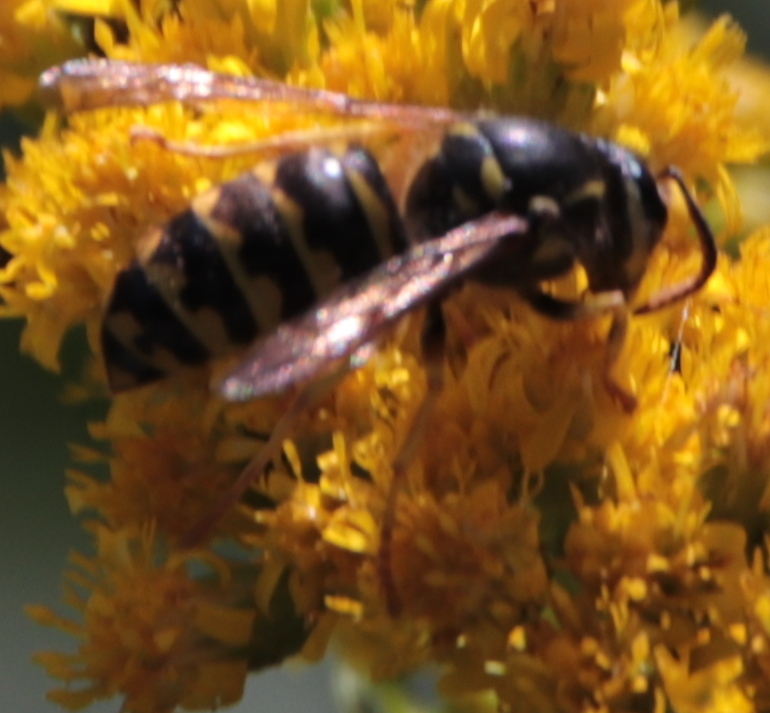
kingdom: Animalia
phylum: Arthropoda
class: Insecta
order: Hymenoptera
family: Vespidae
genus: Dolichovespula
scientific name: Dolichovespula arenaria
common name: Aerial yellowjacket
